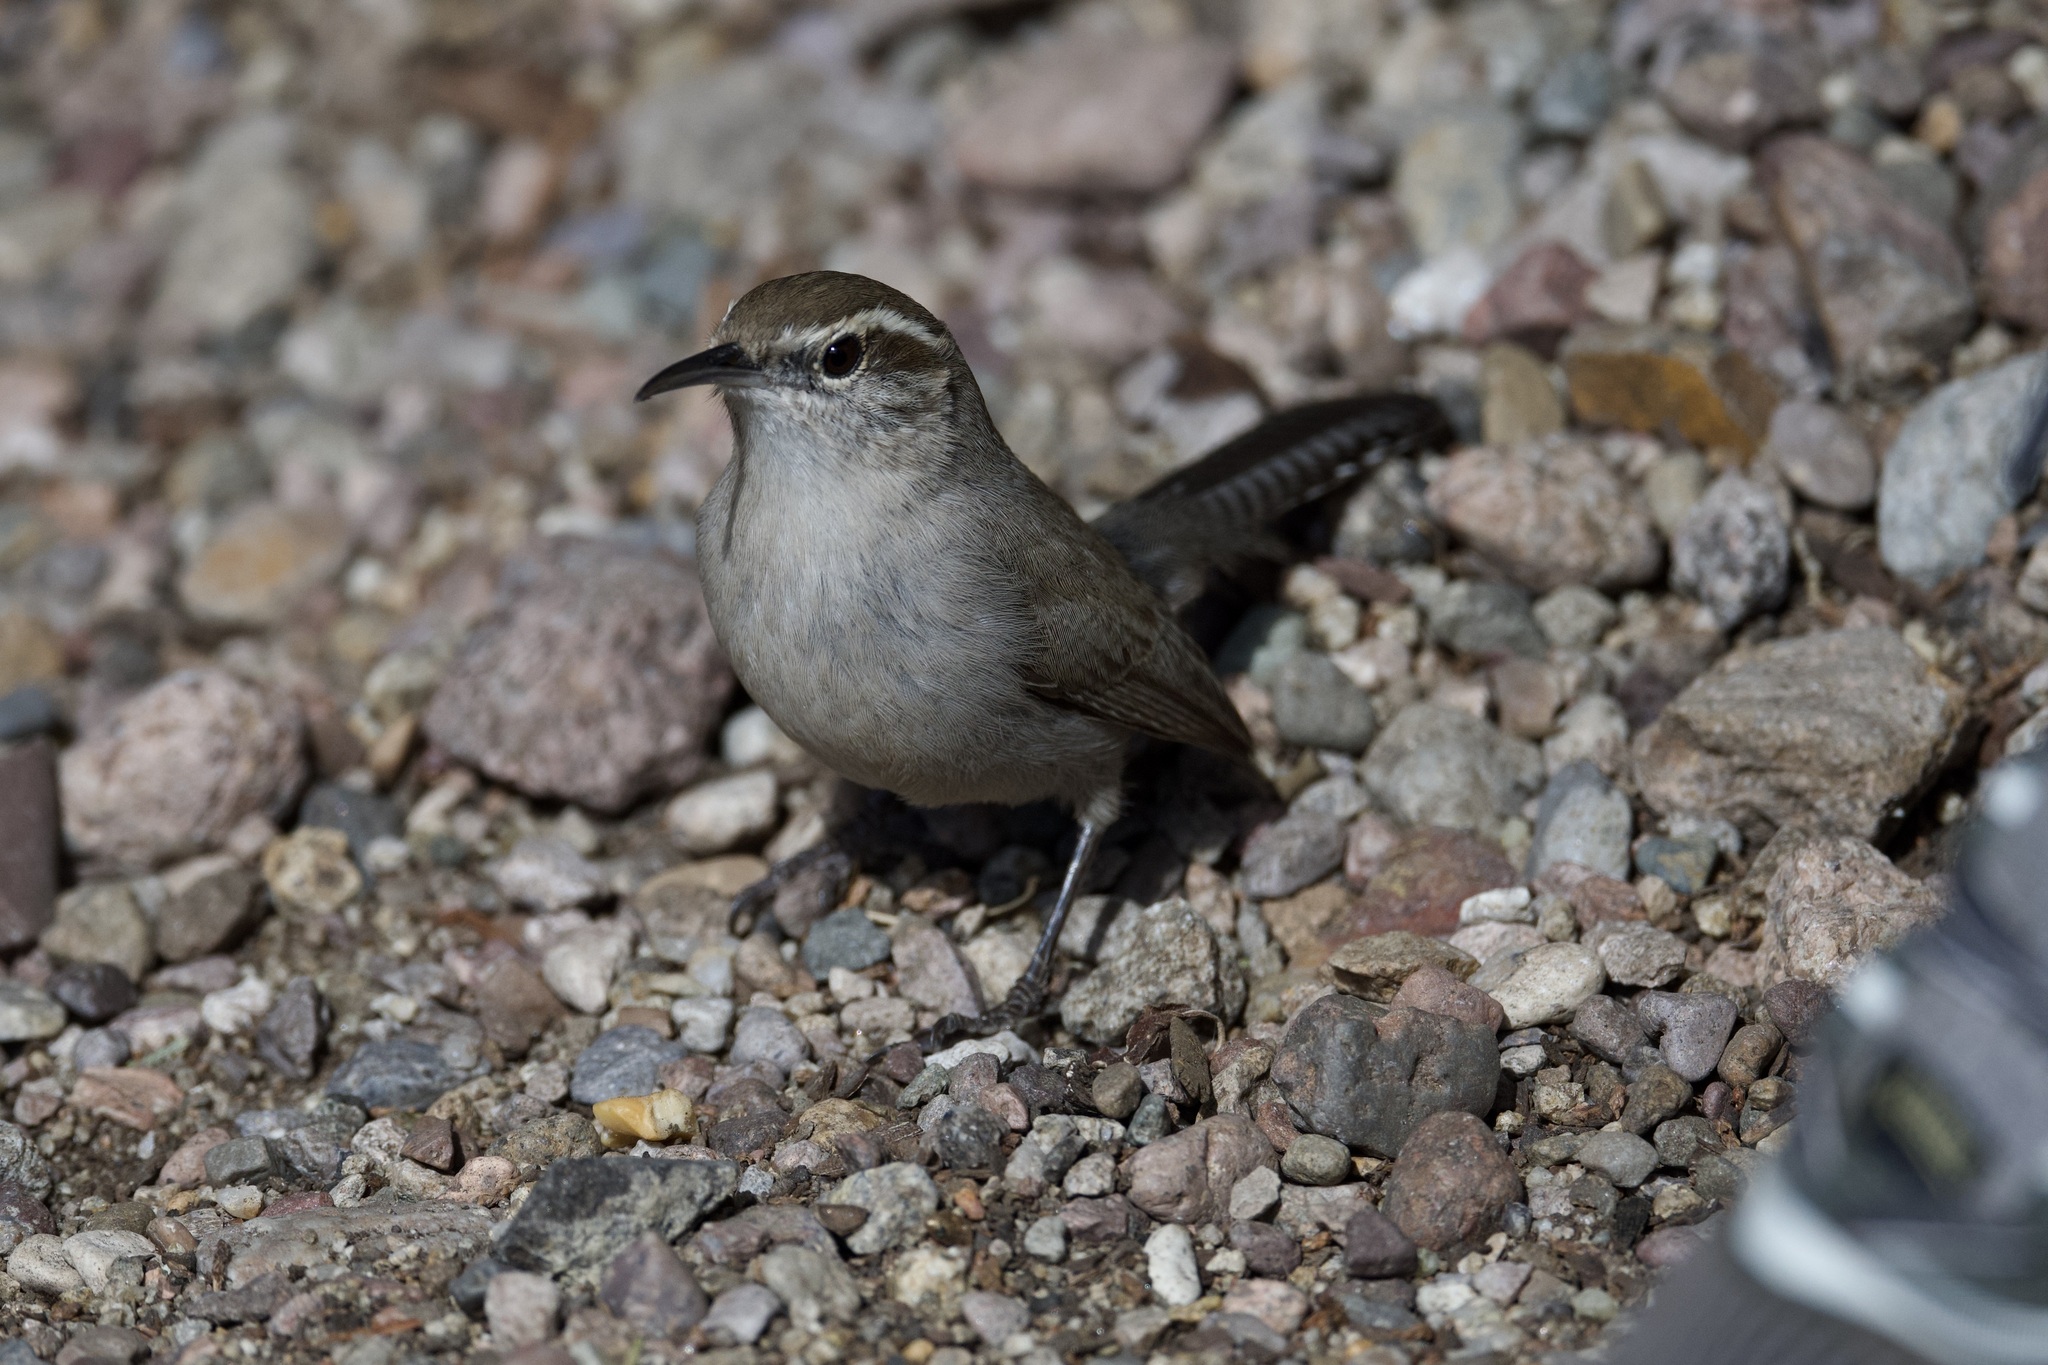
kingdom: Animalia
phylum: Chordata
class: Aves
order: Passeriformes
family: Troglodytidae
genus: Thryomanes
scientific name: Thryomanes bewickii
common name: Bewick's wren
